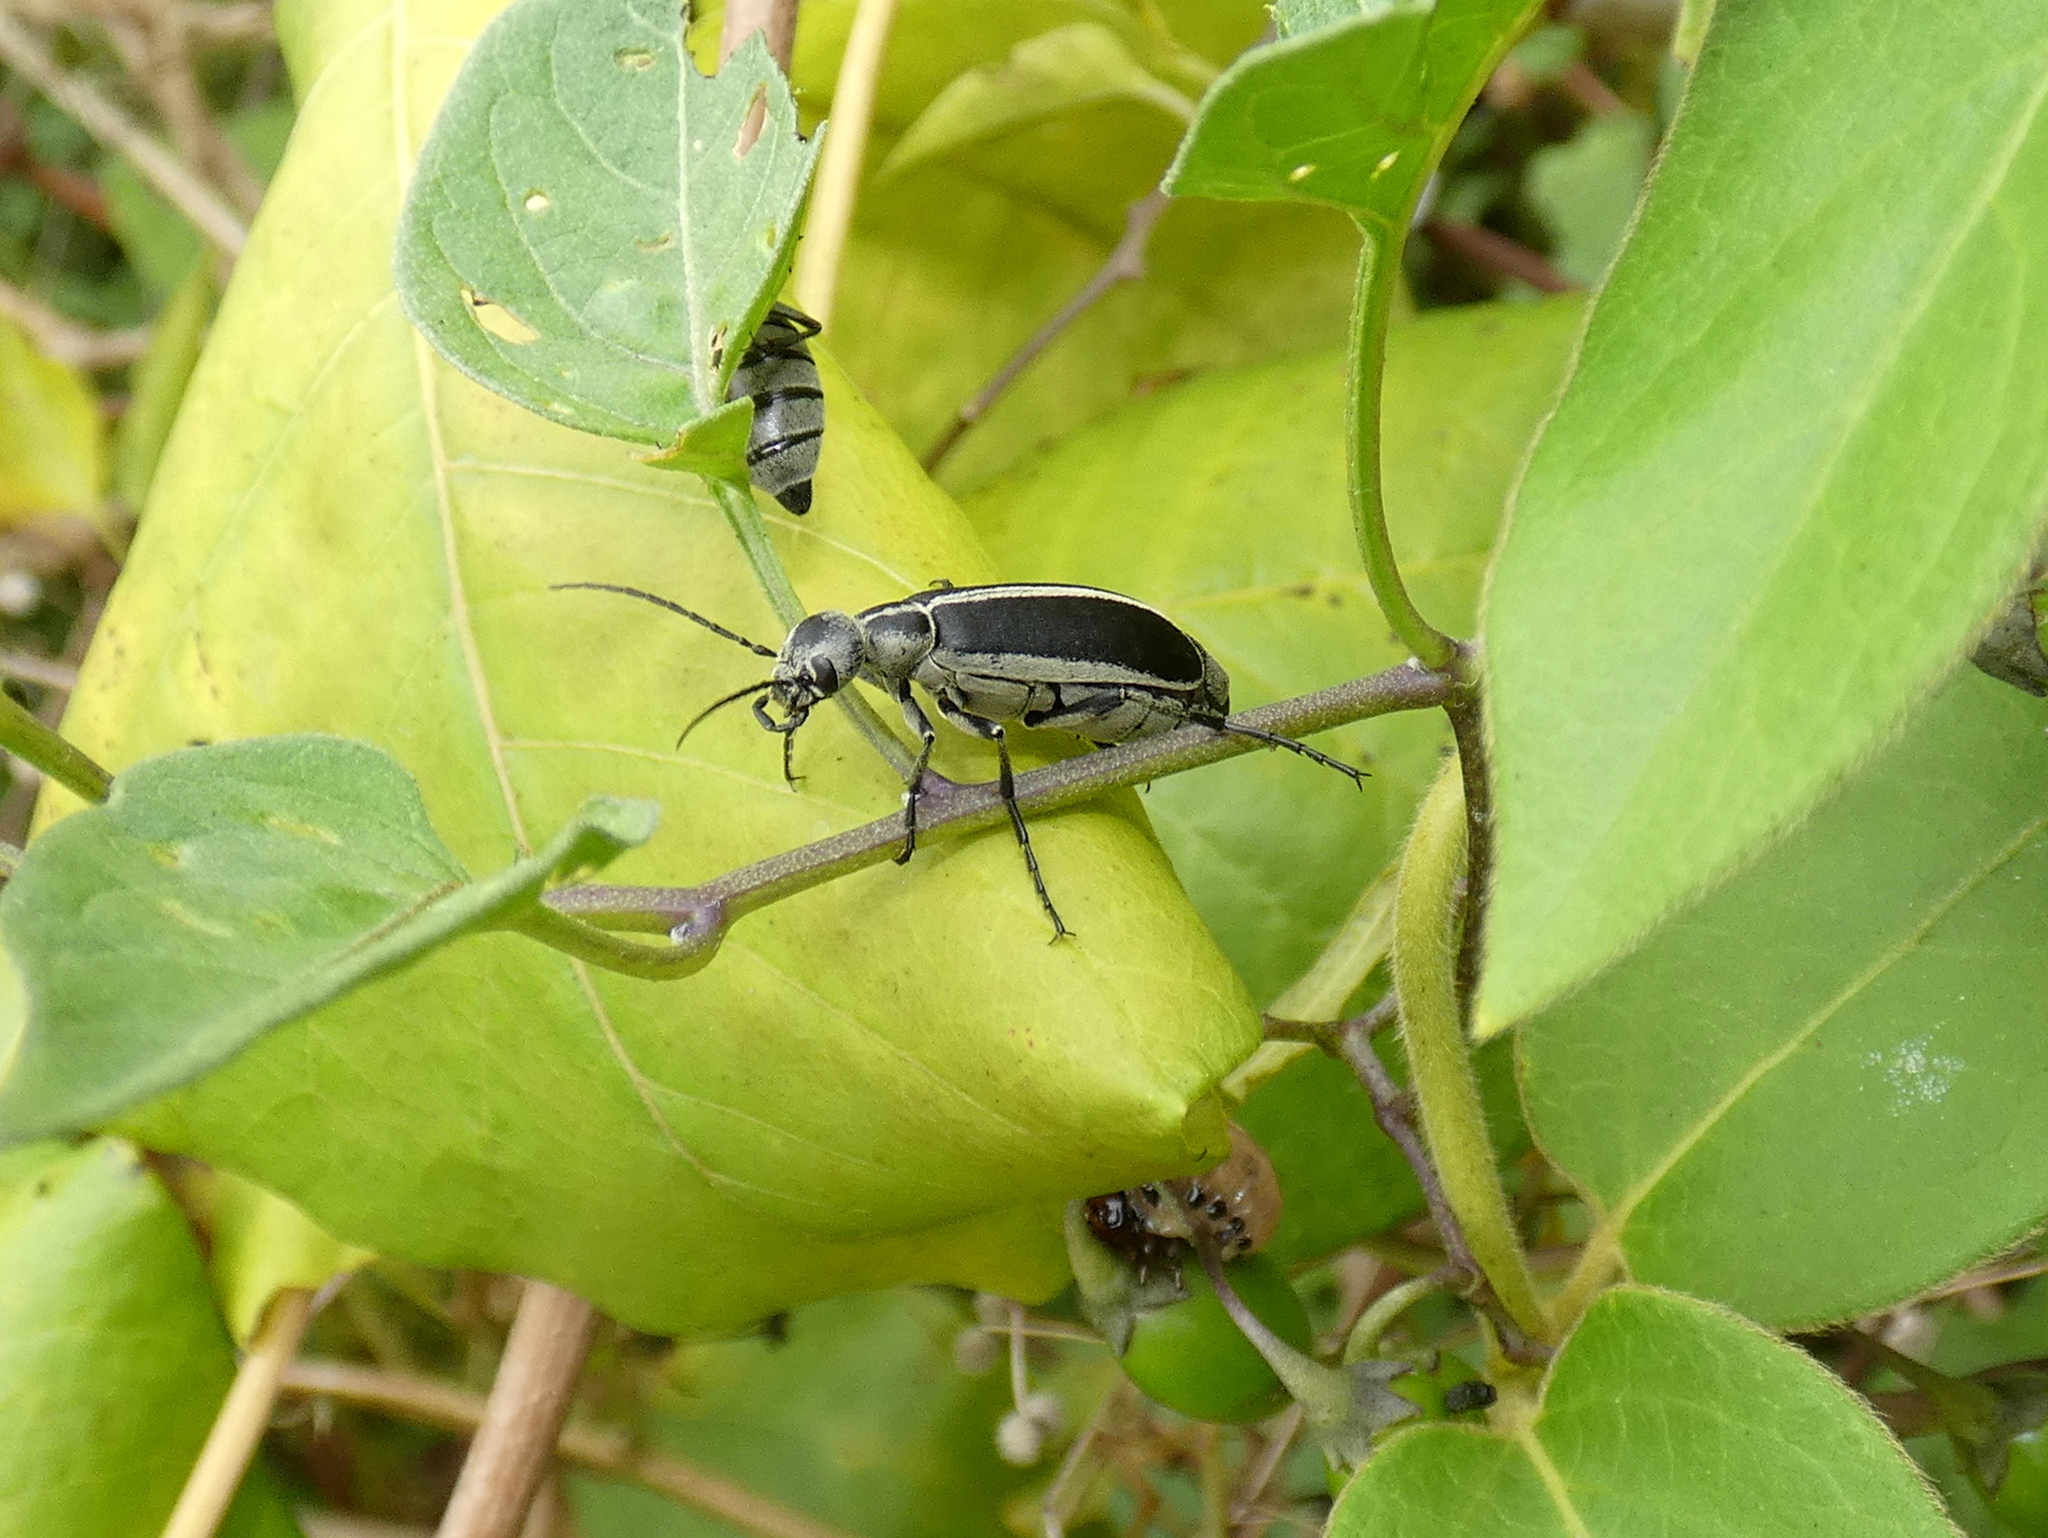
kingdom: Animalia
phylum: Arthropoda
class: Insecta
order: Coleoptera
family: Meloidae
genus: Epicauta
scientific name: Epicauta funebris
